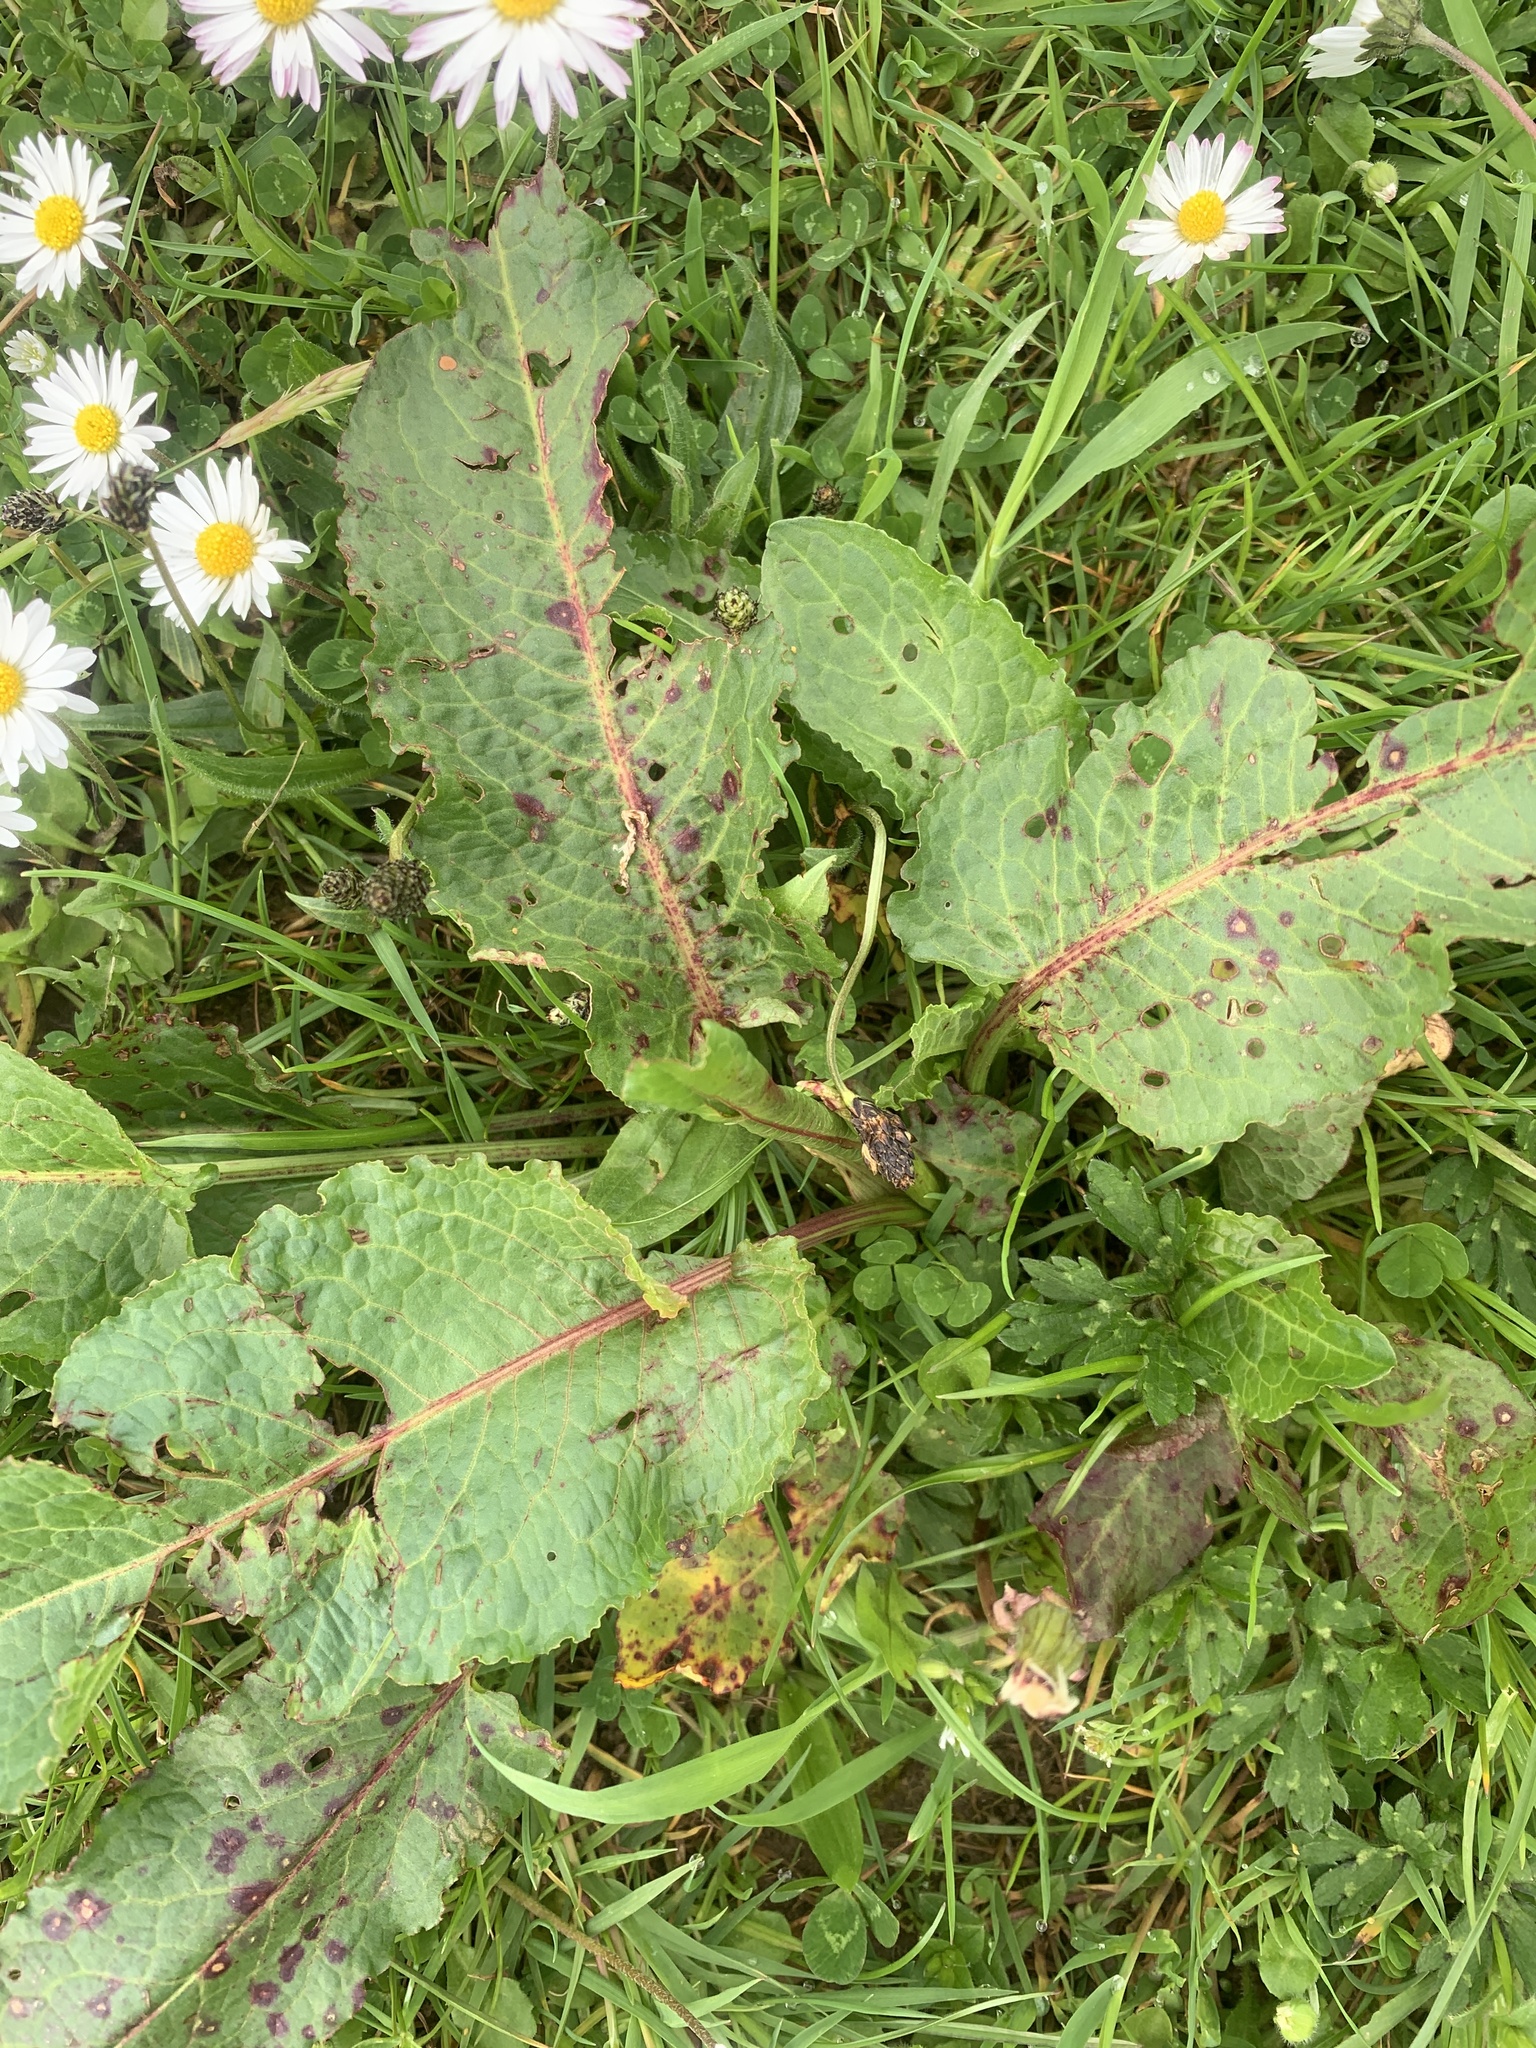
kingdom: Plantae
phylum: Tracheophyta
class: Magnoliopsida
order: Caryophyllales
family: Polygonaceae
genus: Rumex
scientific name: Rumex obtusifolius
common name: Bitter dock
